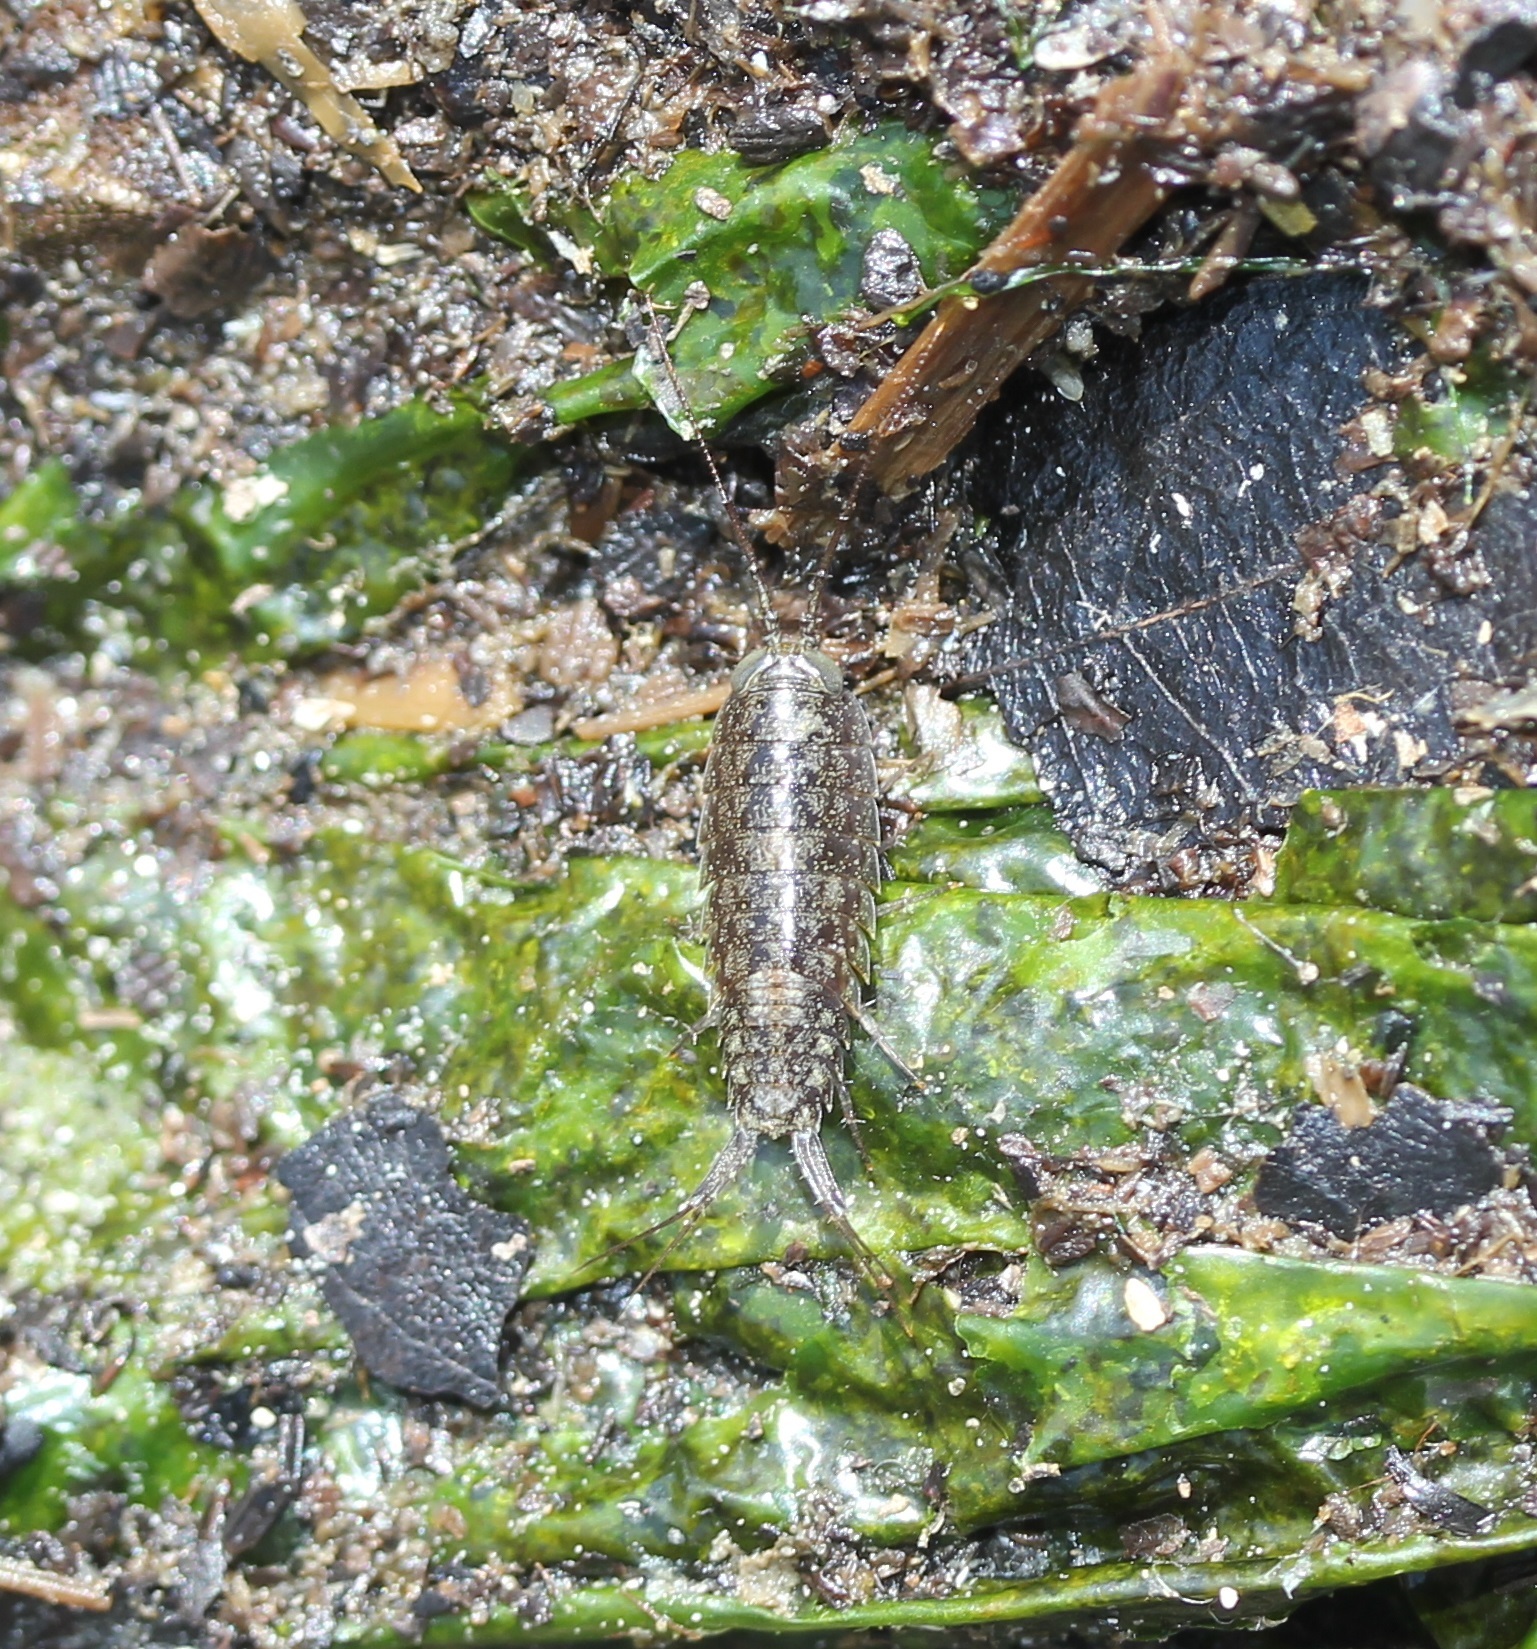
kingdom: Animalia
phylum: Arthropoda
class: Malacostraca
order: Isopoda
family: Ligiidae
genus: Ligia
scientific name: Ligia exotica
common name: Wharf roach
